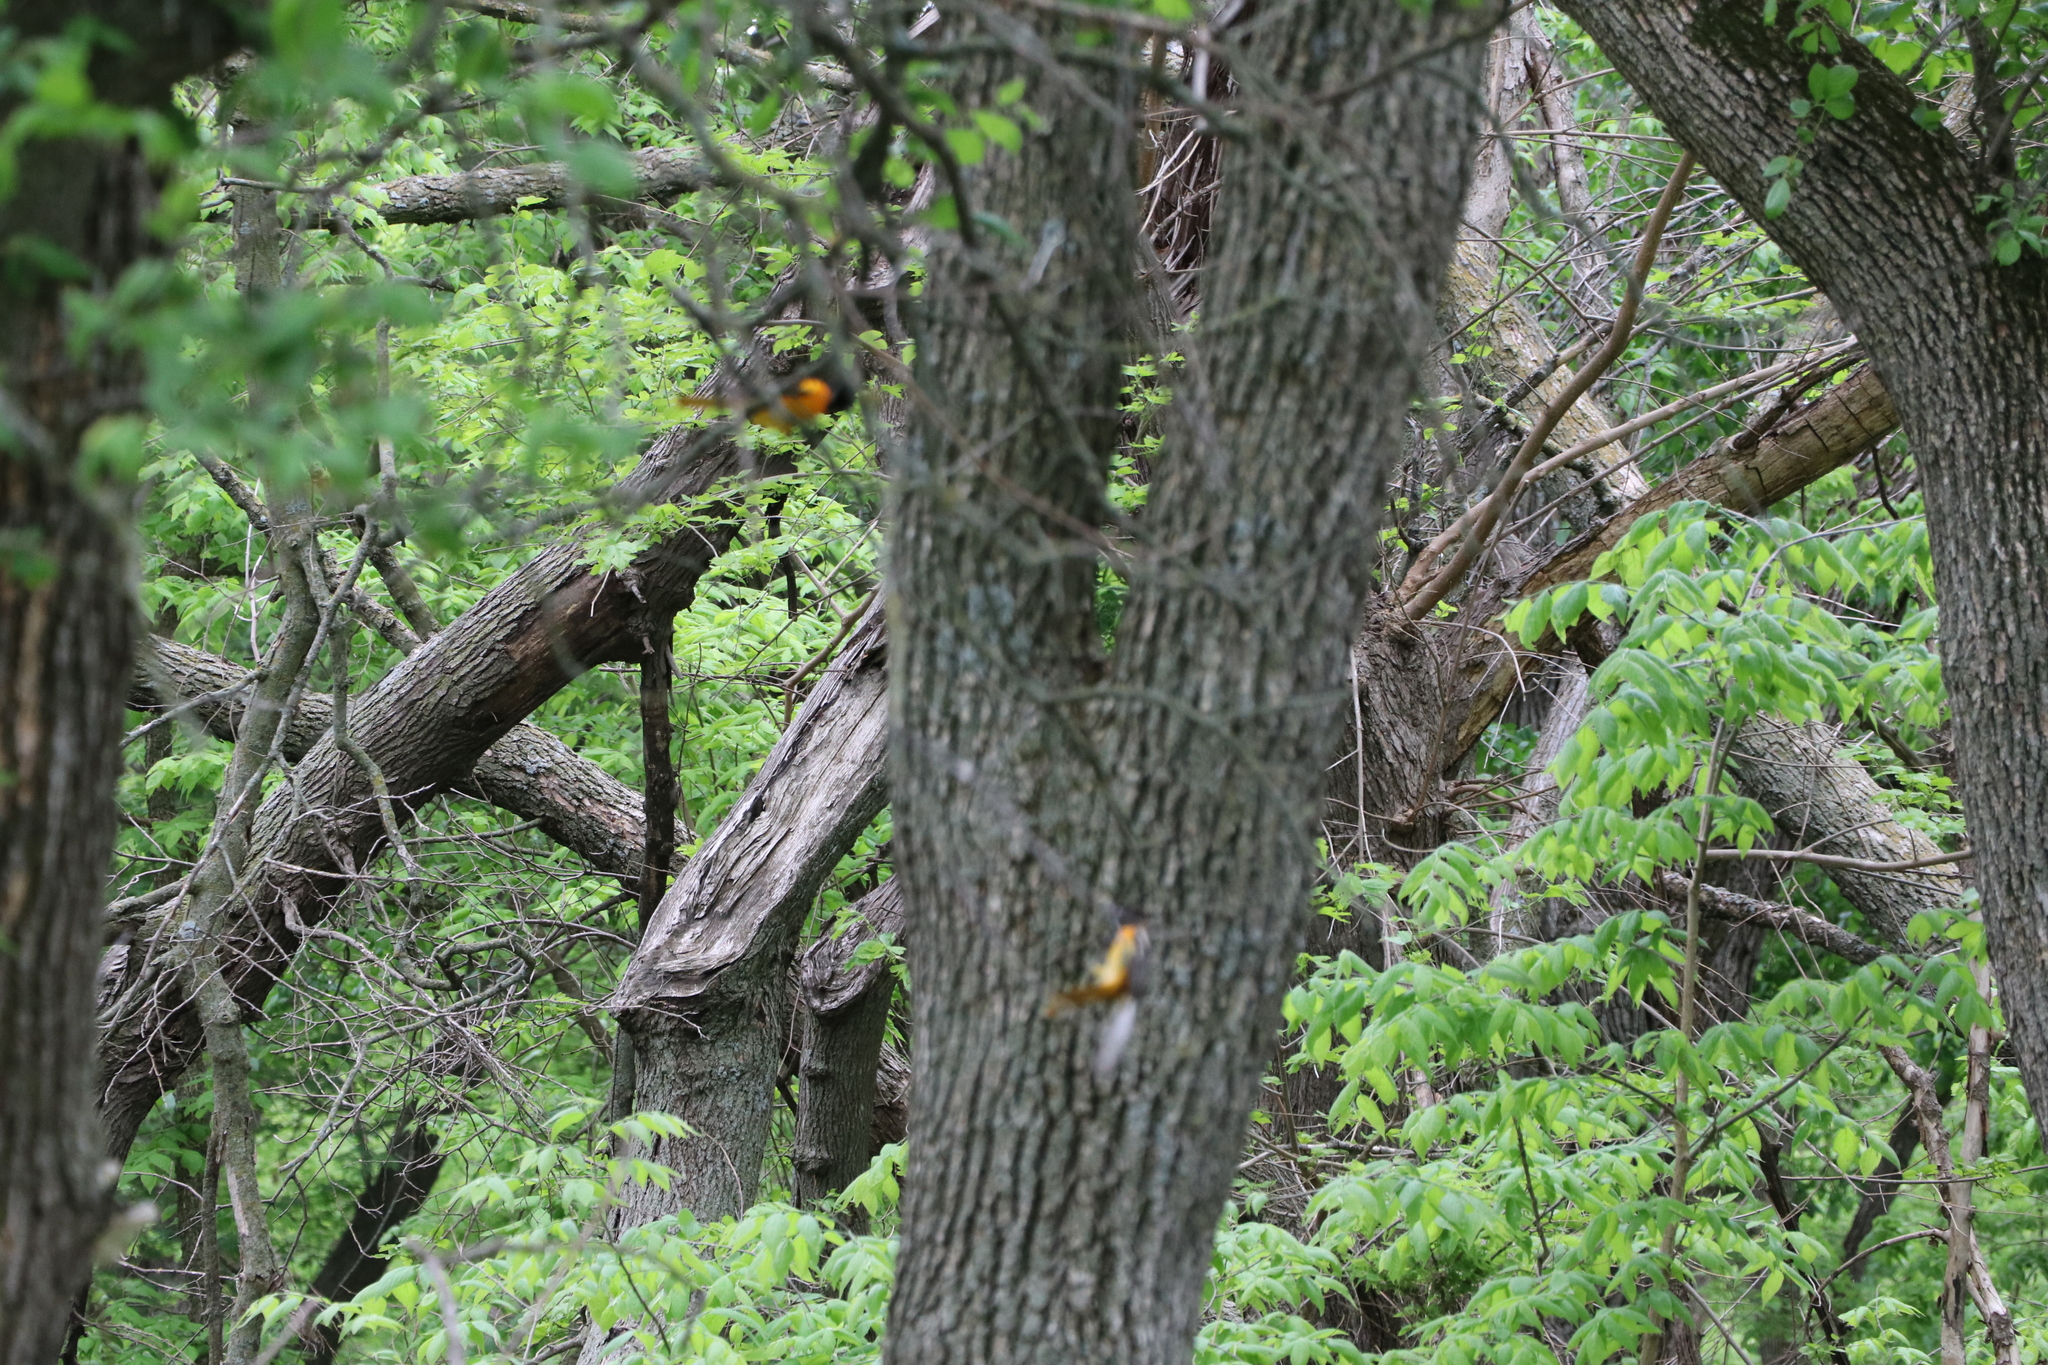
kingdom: Animalia
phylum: Chordata
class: Aves
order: Passeriformes
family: Icteridae
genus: Icterus
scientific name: Icterus galbula
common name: Baltimore oriole
